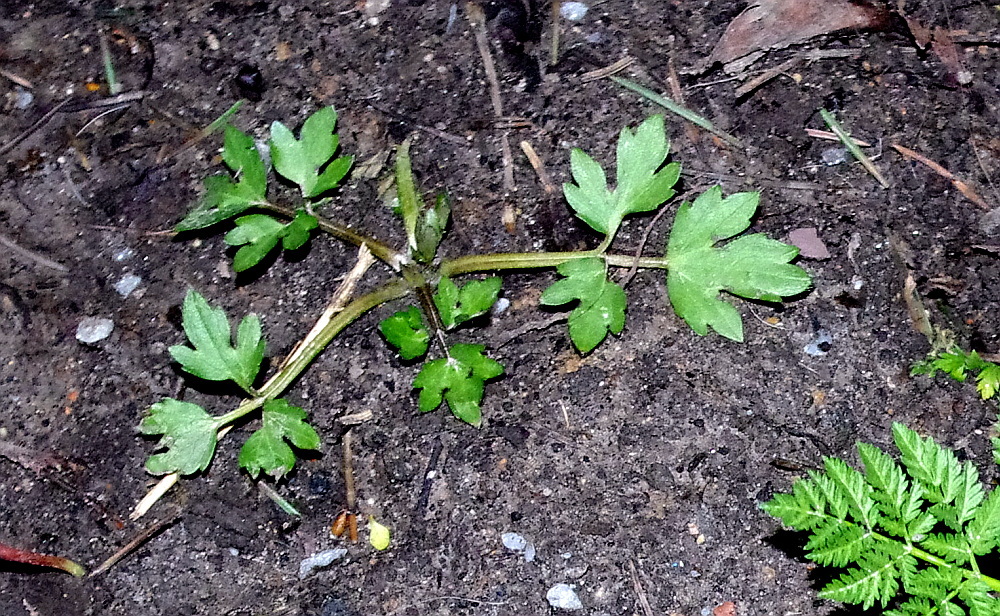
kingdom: Plantae
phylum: Tracheophyta
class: Magnoliopsida
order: Ranunculales
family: Ranunculaceae
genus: Ranunculus
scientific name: Ranunculus repens
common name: Creeping buttercup
